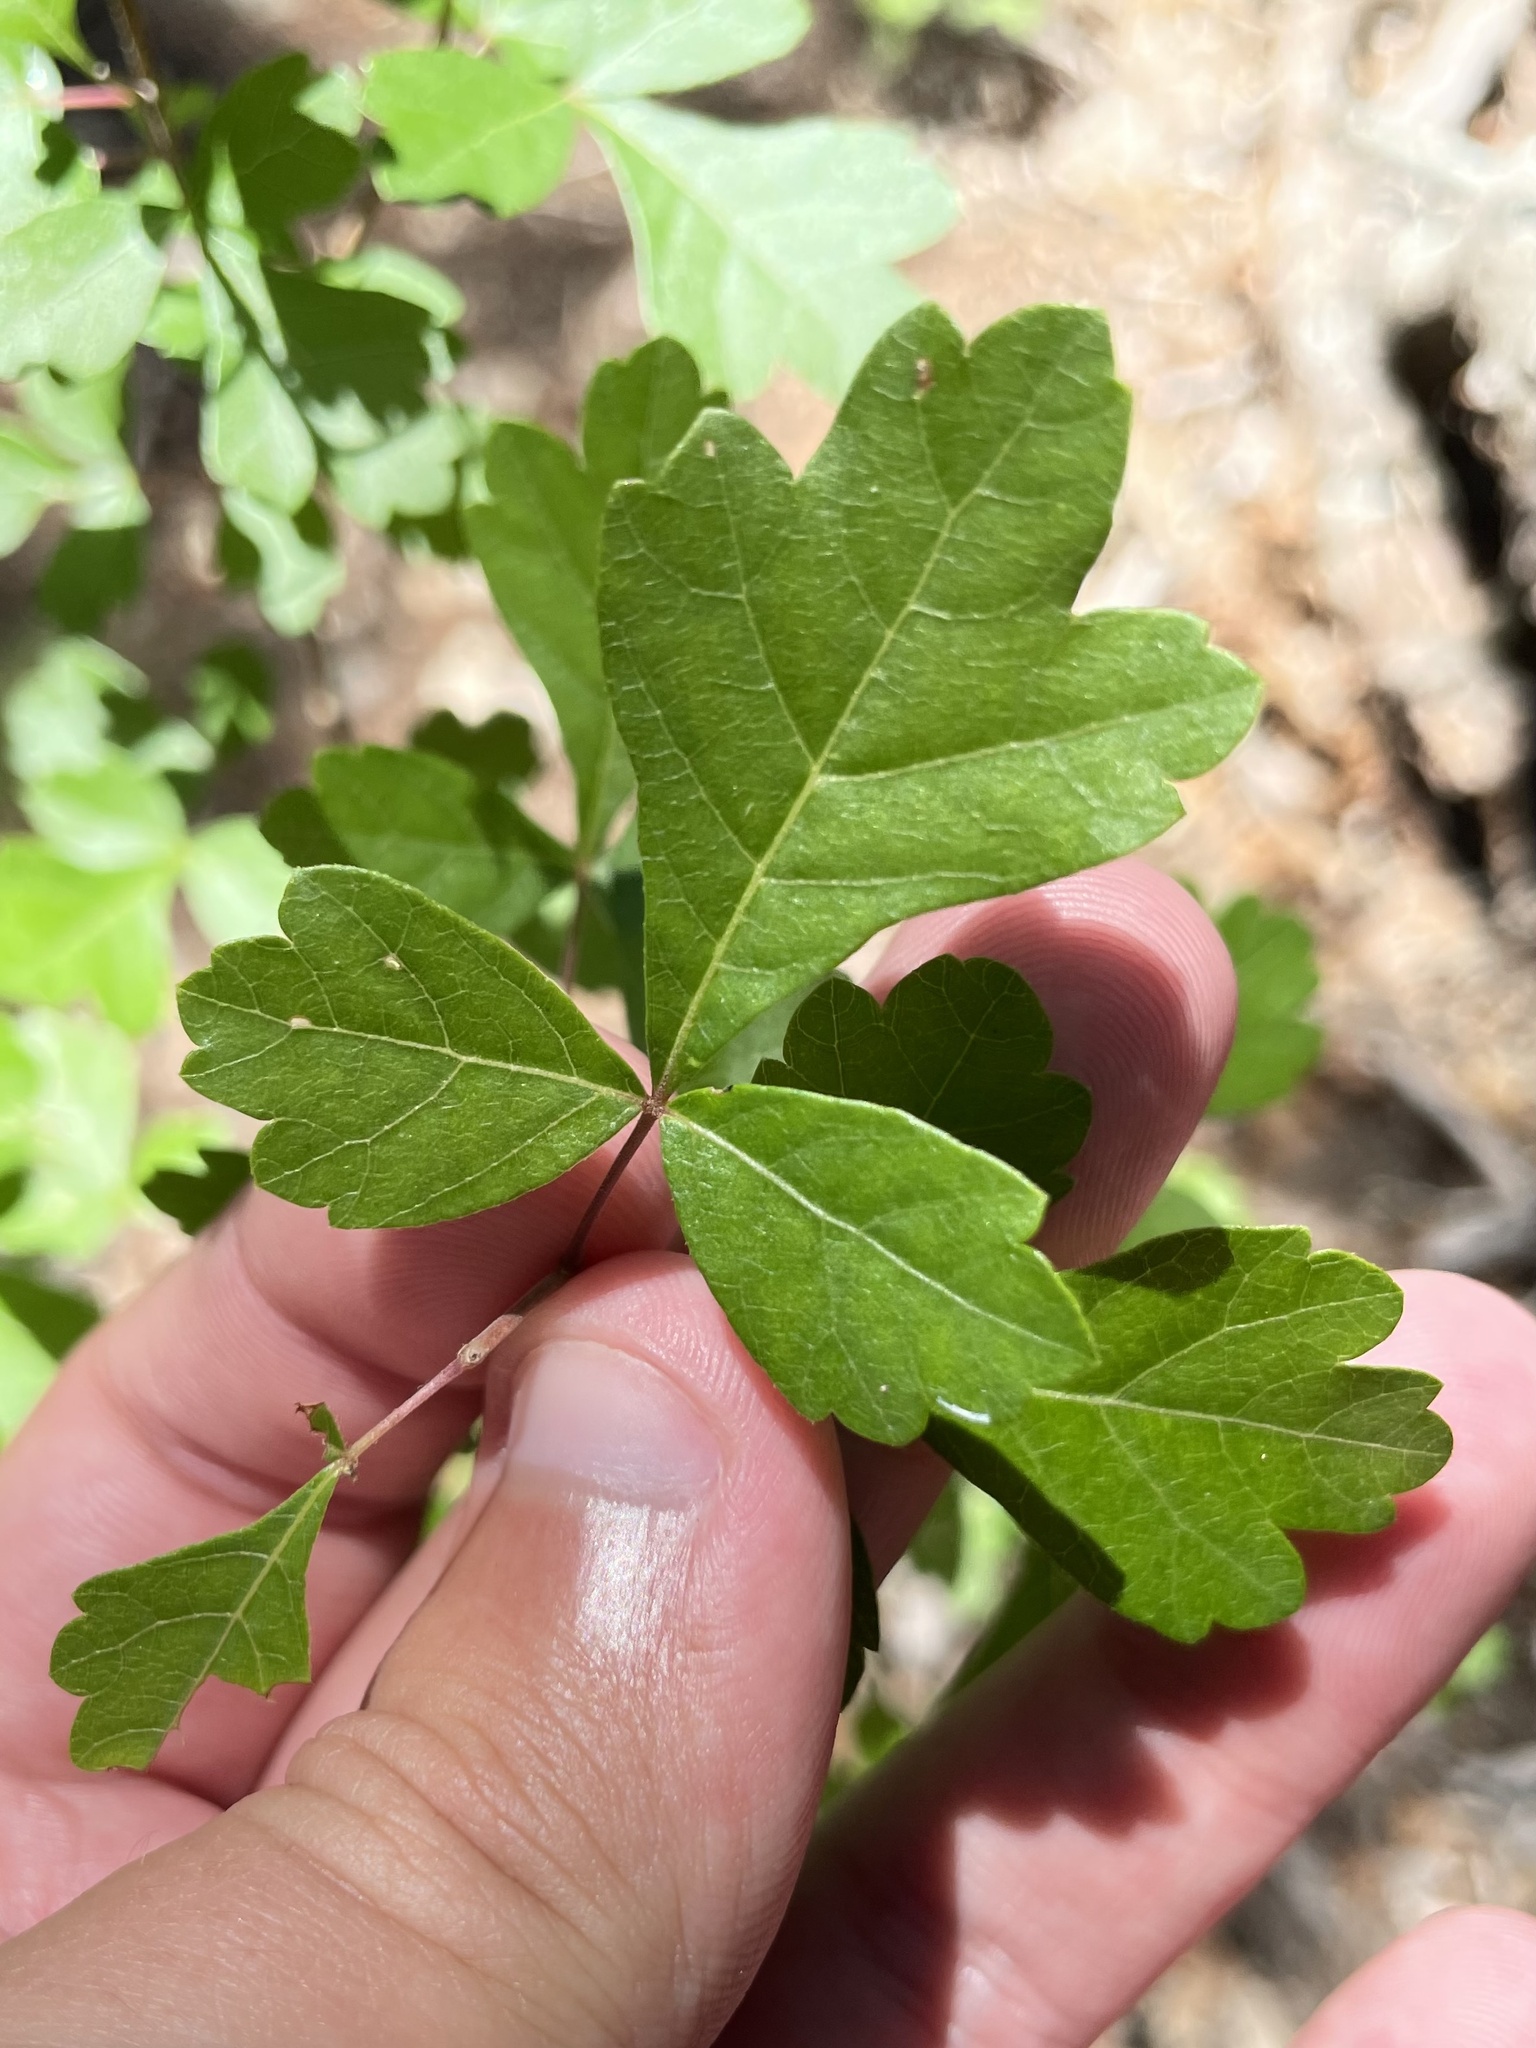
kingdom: Plantae
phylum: Tracheophyta
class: Magnoliopsida
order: Sapindales
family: Anacardiaceae
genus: Rhus
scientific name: Rhus aromatica
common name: Aromatic sumac
